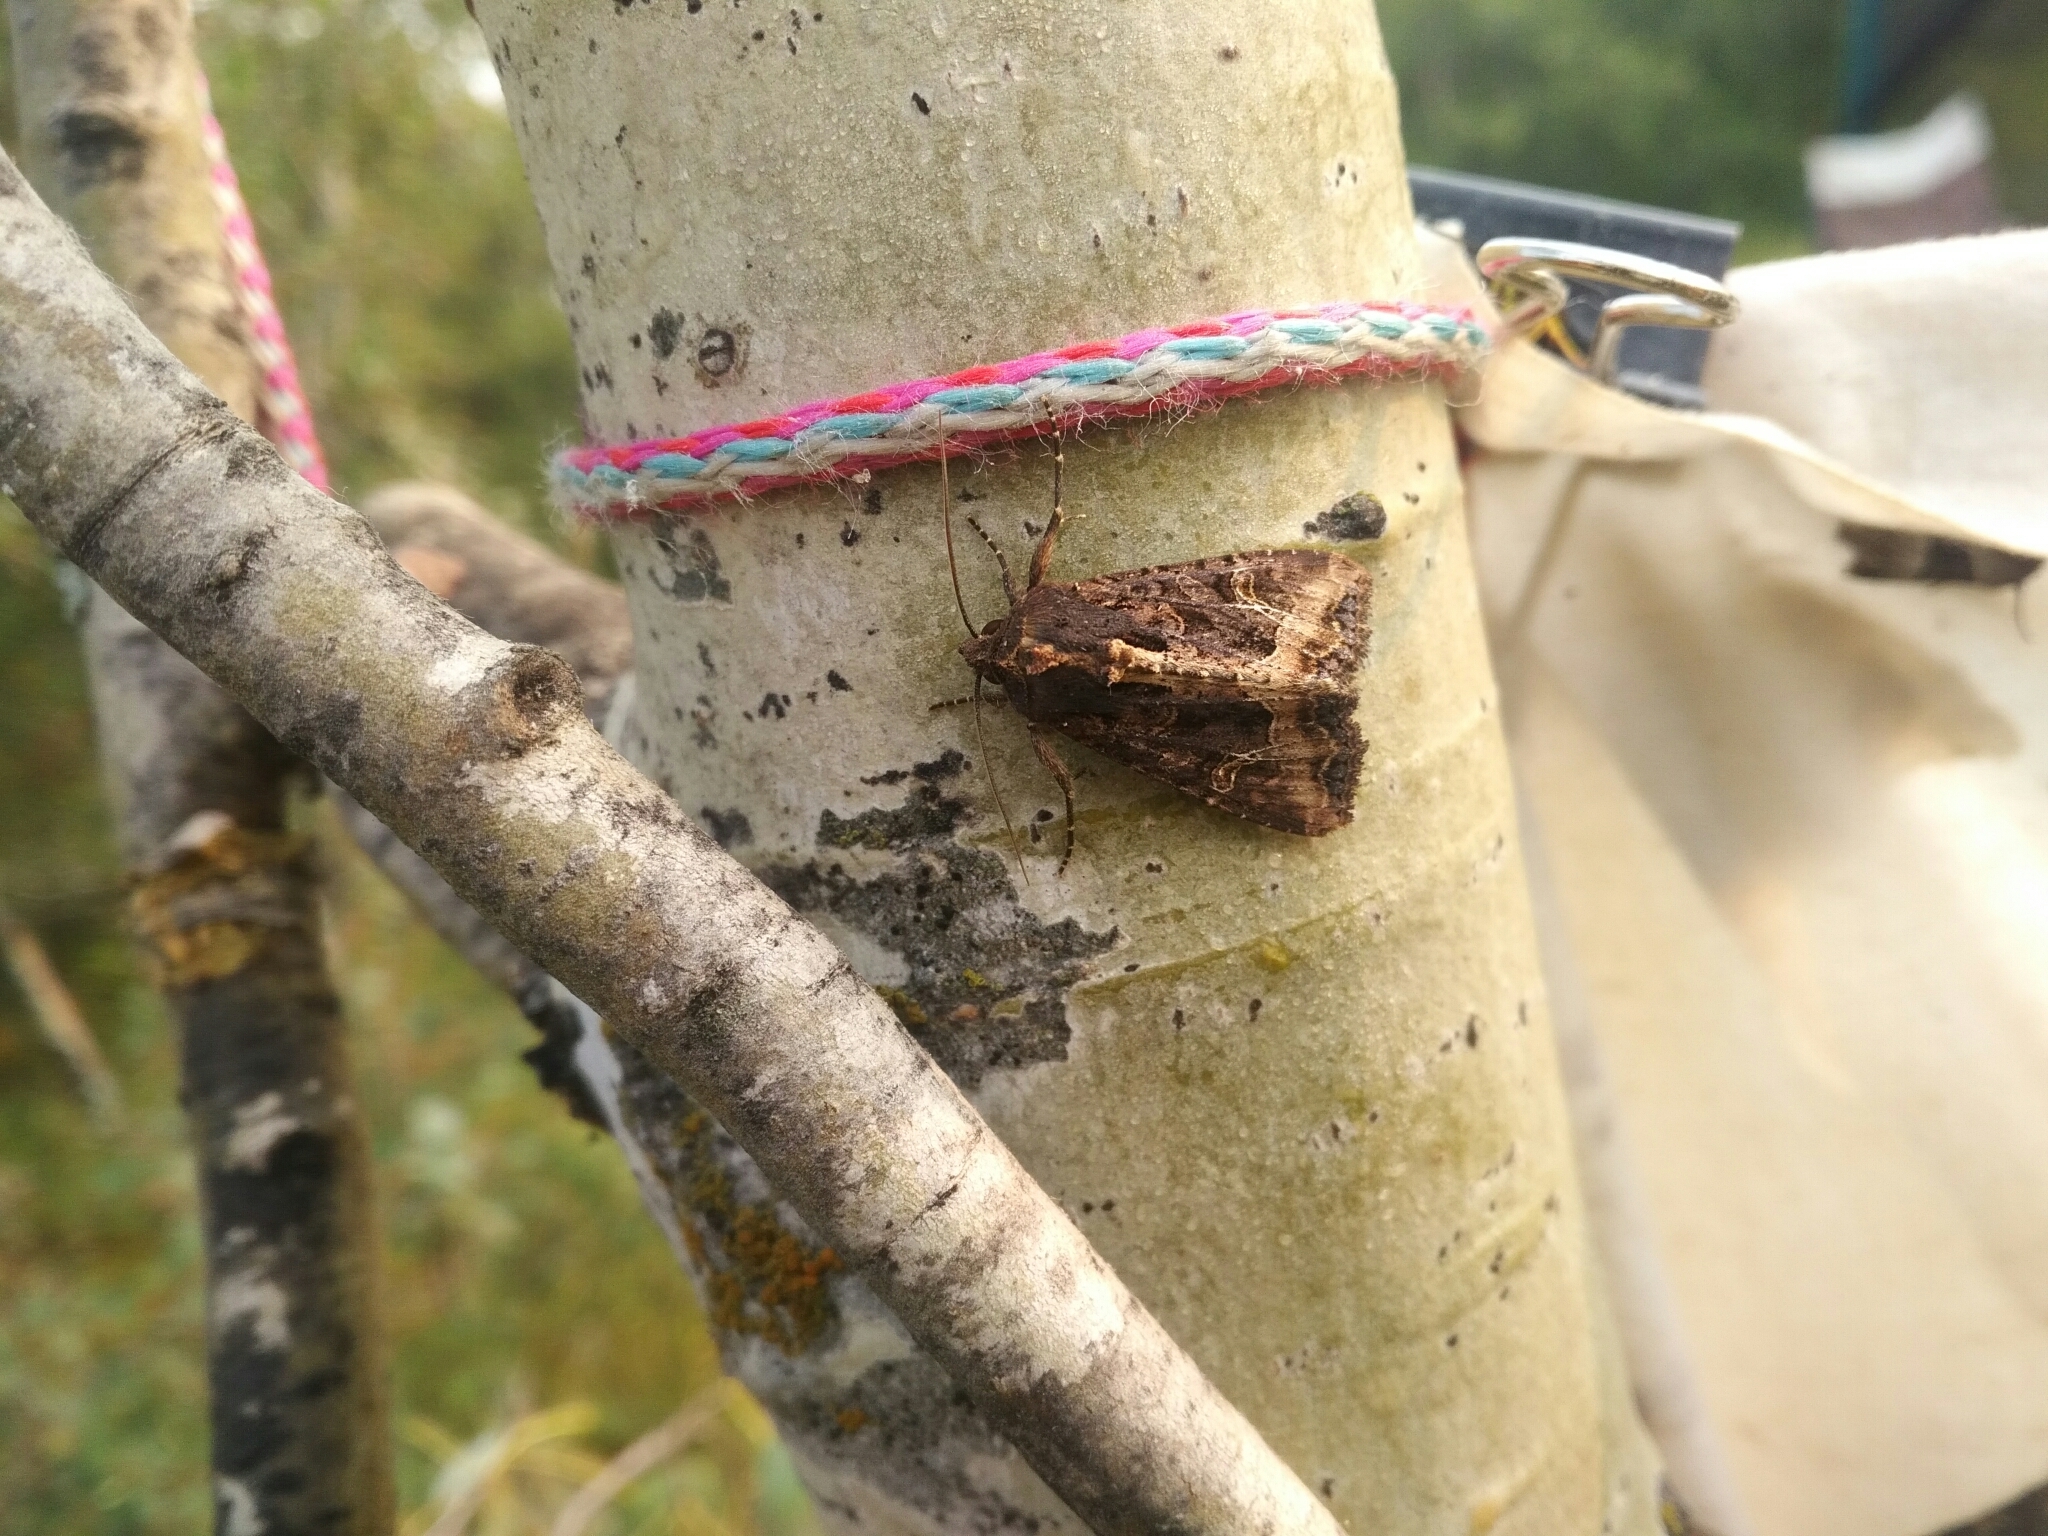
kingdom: Animalia
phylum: Arthropoda
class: Insecta
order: Lepidoptera
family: Noctuidae
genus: Helotropha
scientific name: Helotropha reniformis
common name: Kidney-spotted rustic moth
